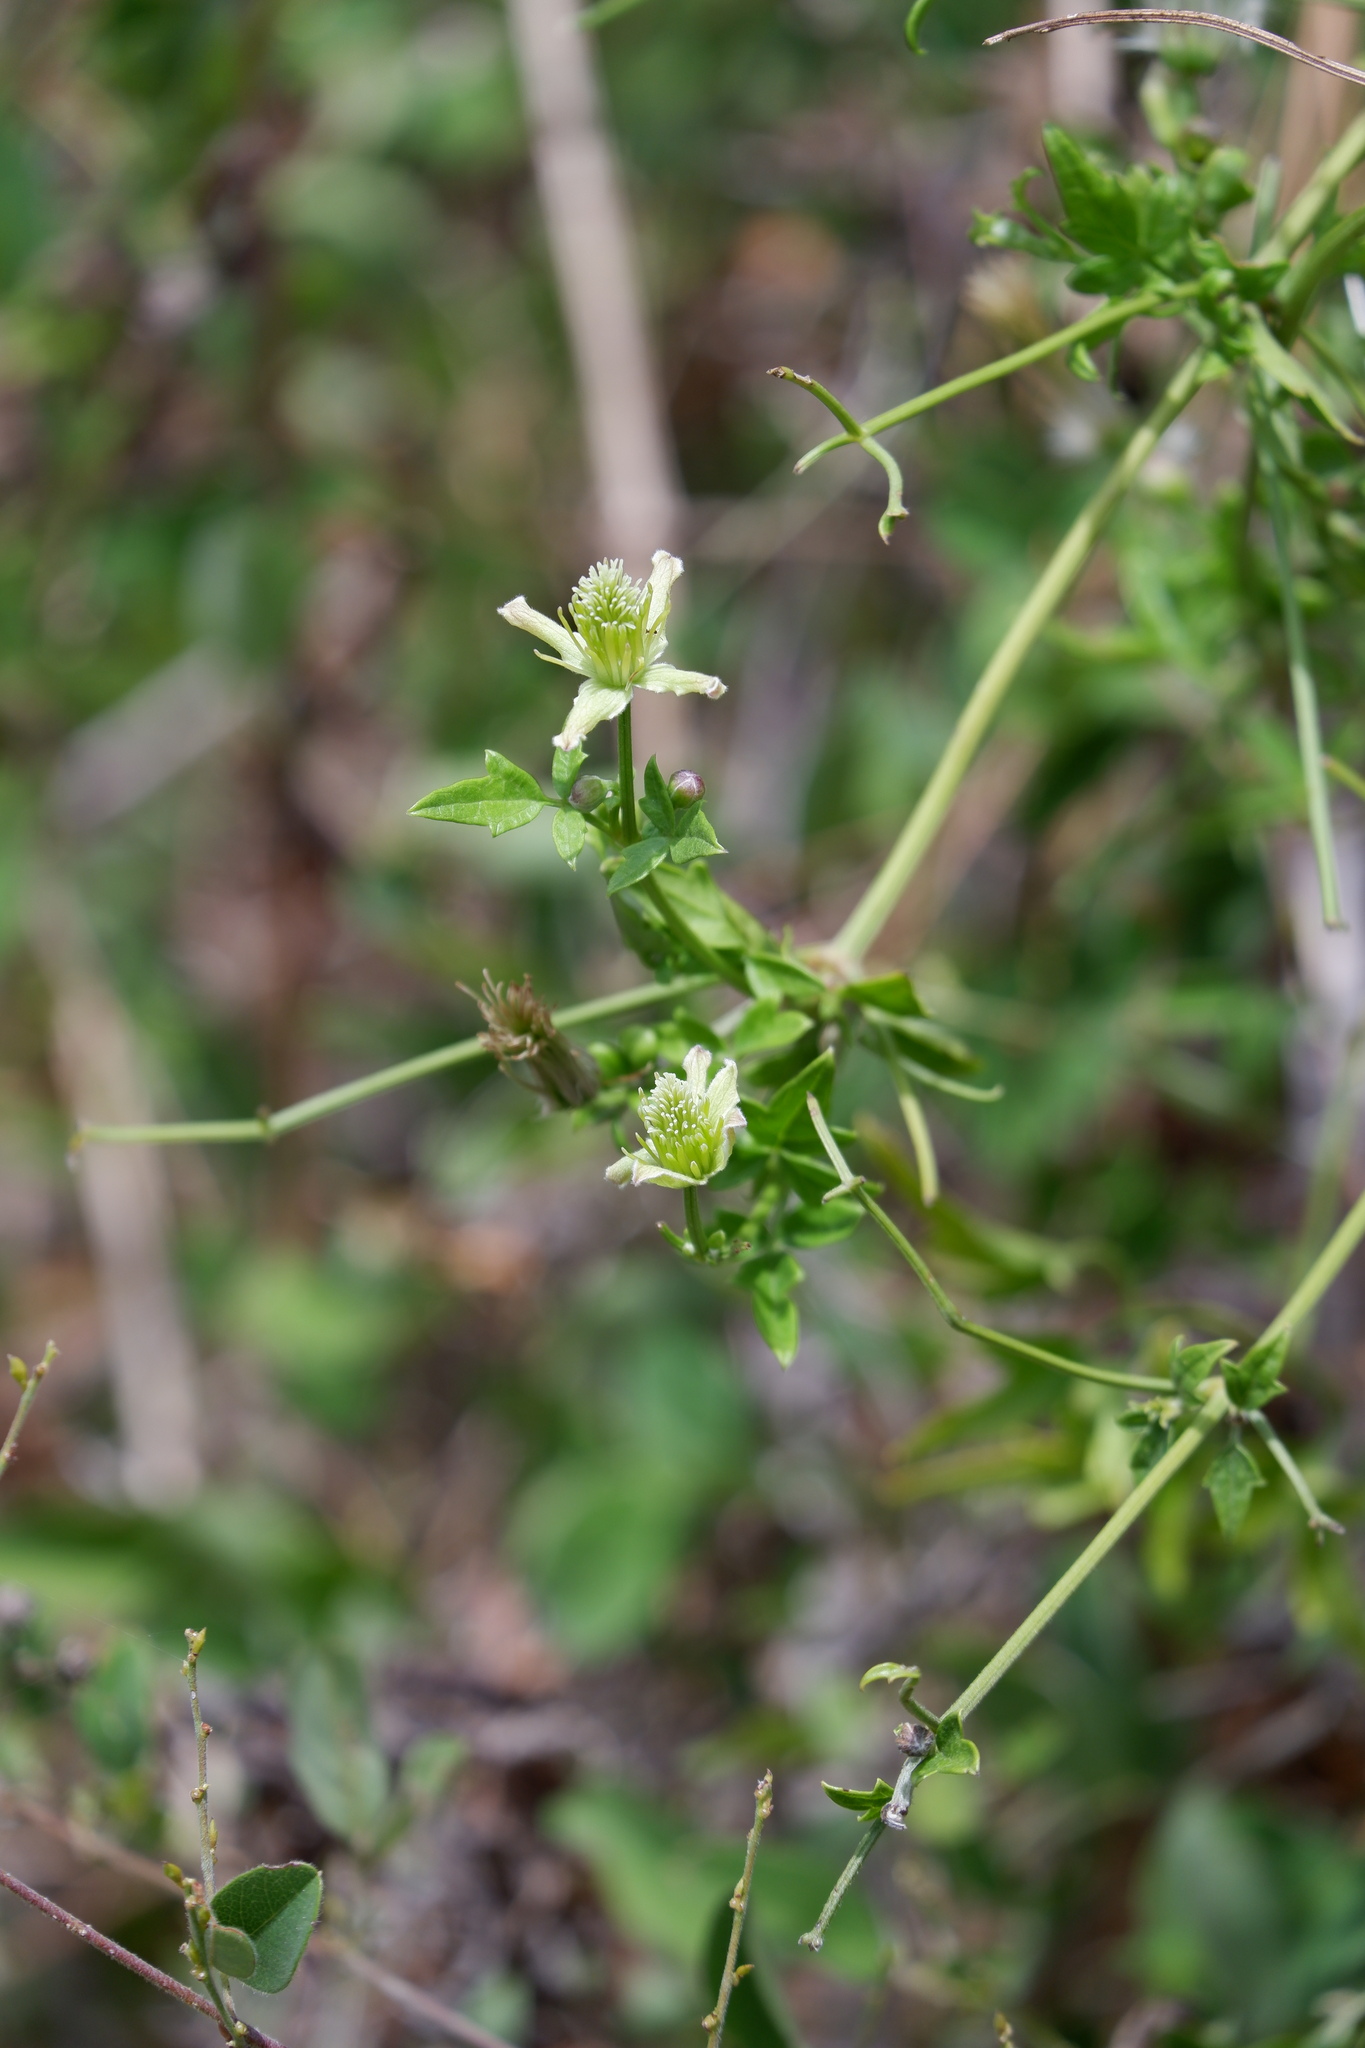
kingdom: Plantae
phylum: Tracheophyta
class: Magnoliopsida
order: Ranunculales
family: Ranunculaceae
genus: Clematis
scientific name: Clematis drummondii
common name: Texas virgin's bower
